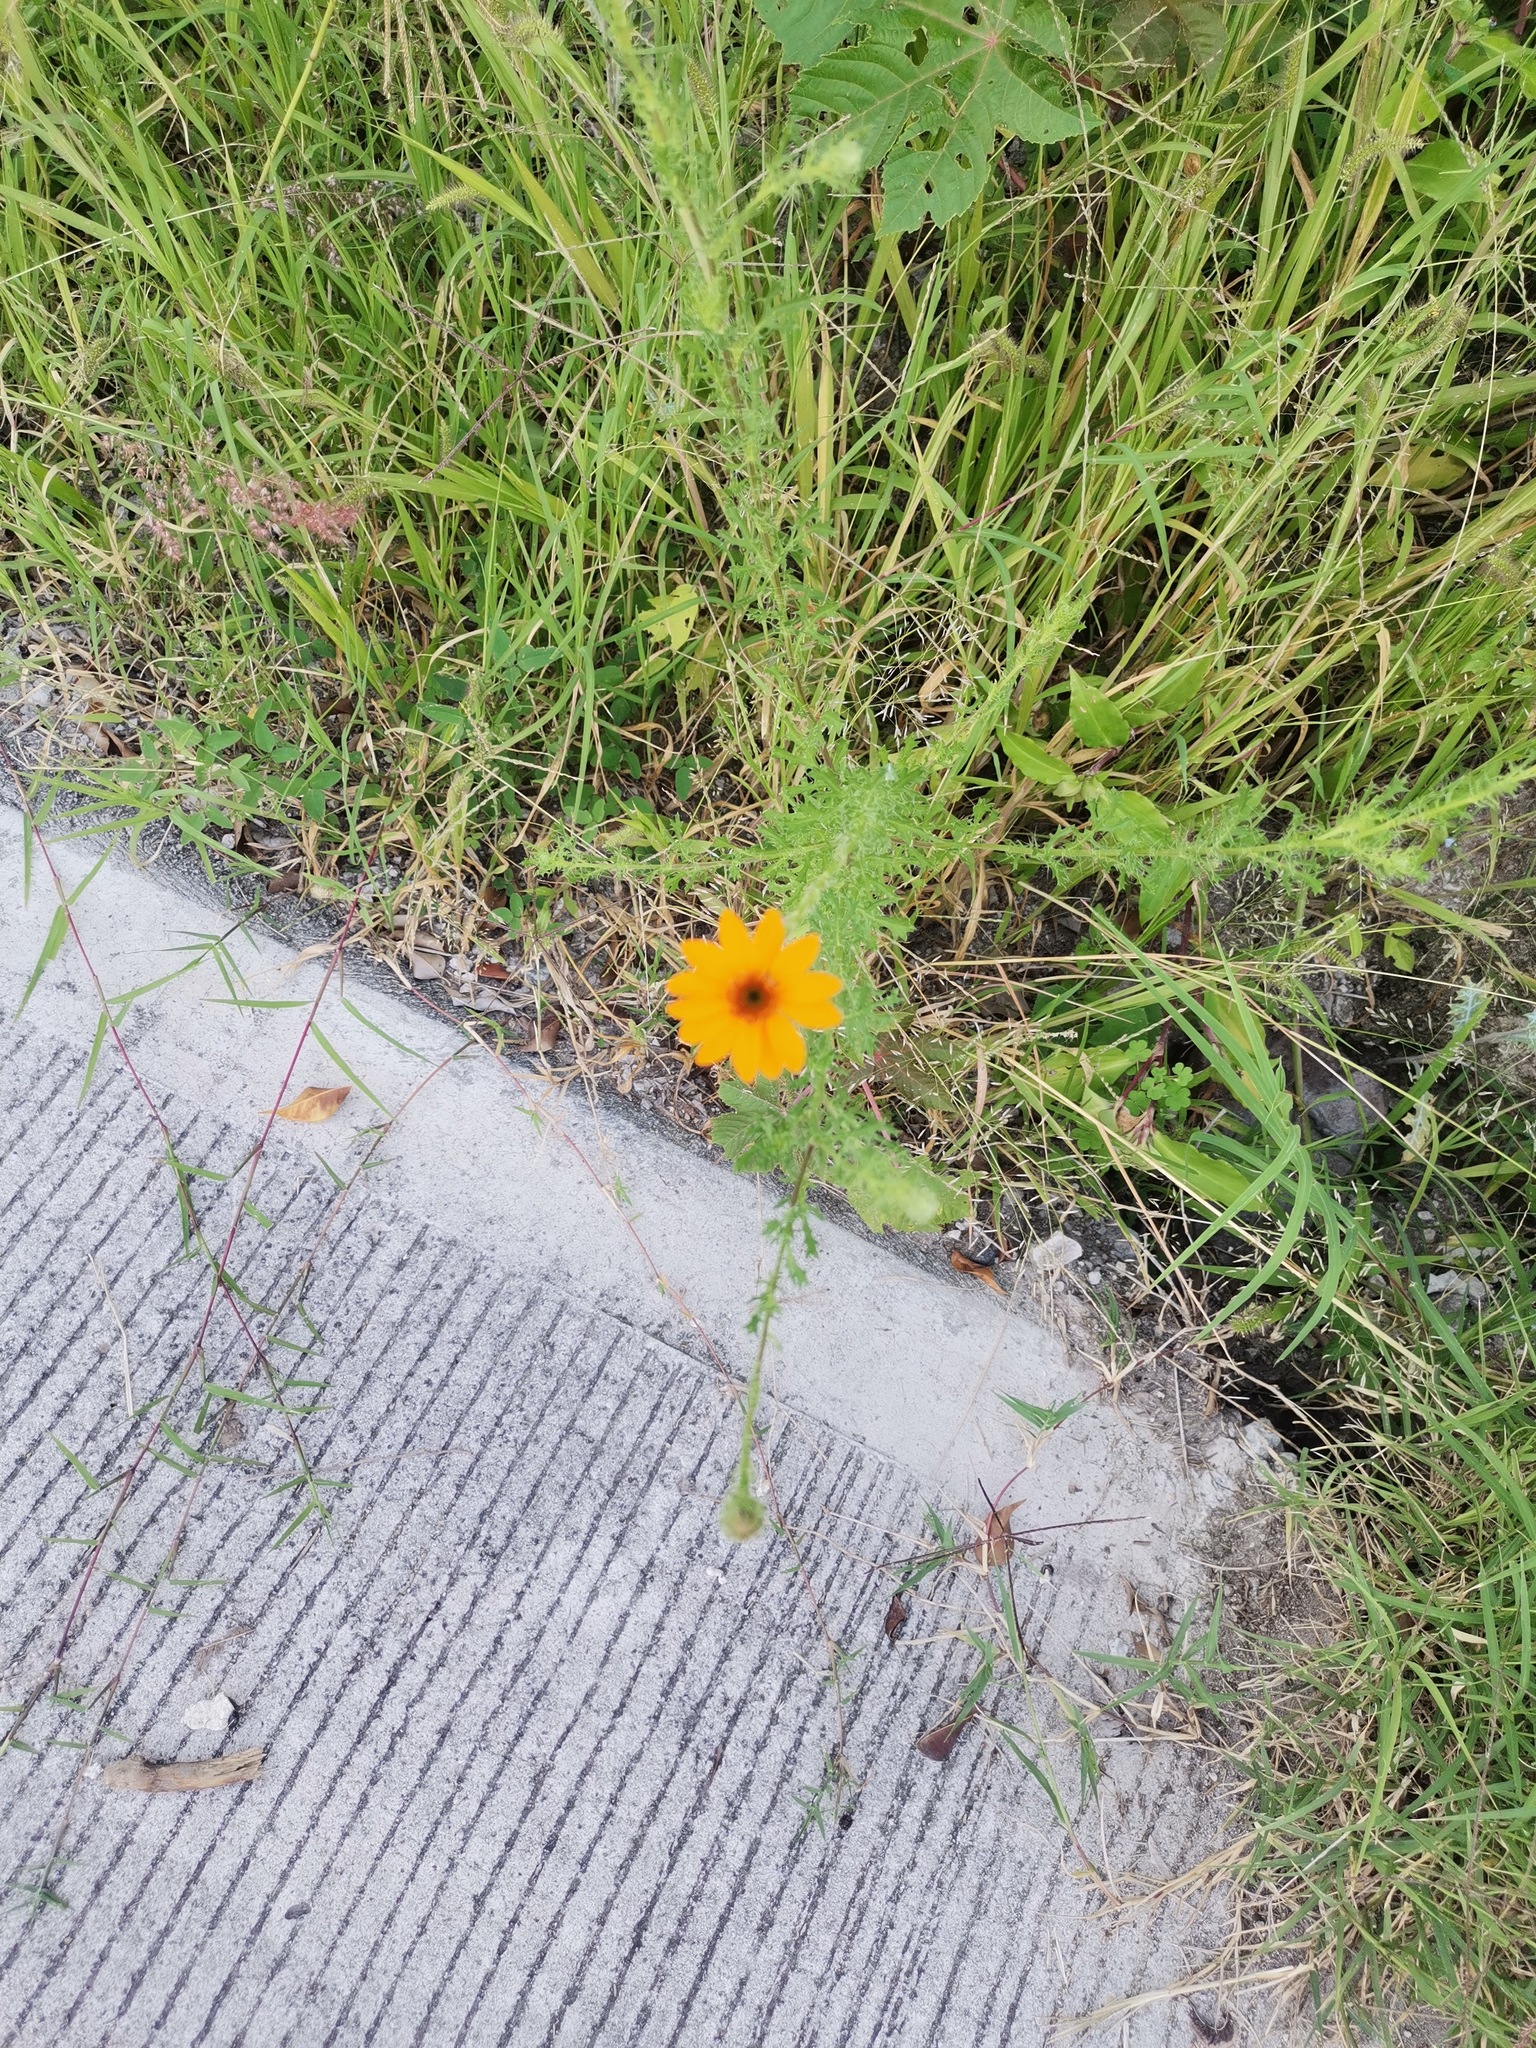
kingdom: Plantae
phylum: Tracheophyta
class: Magnoliopsida
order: Asterales
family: Asteraceae
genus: Adenophyllum
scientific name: Adenophyllum cancellatum
